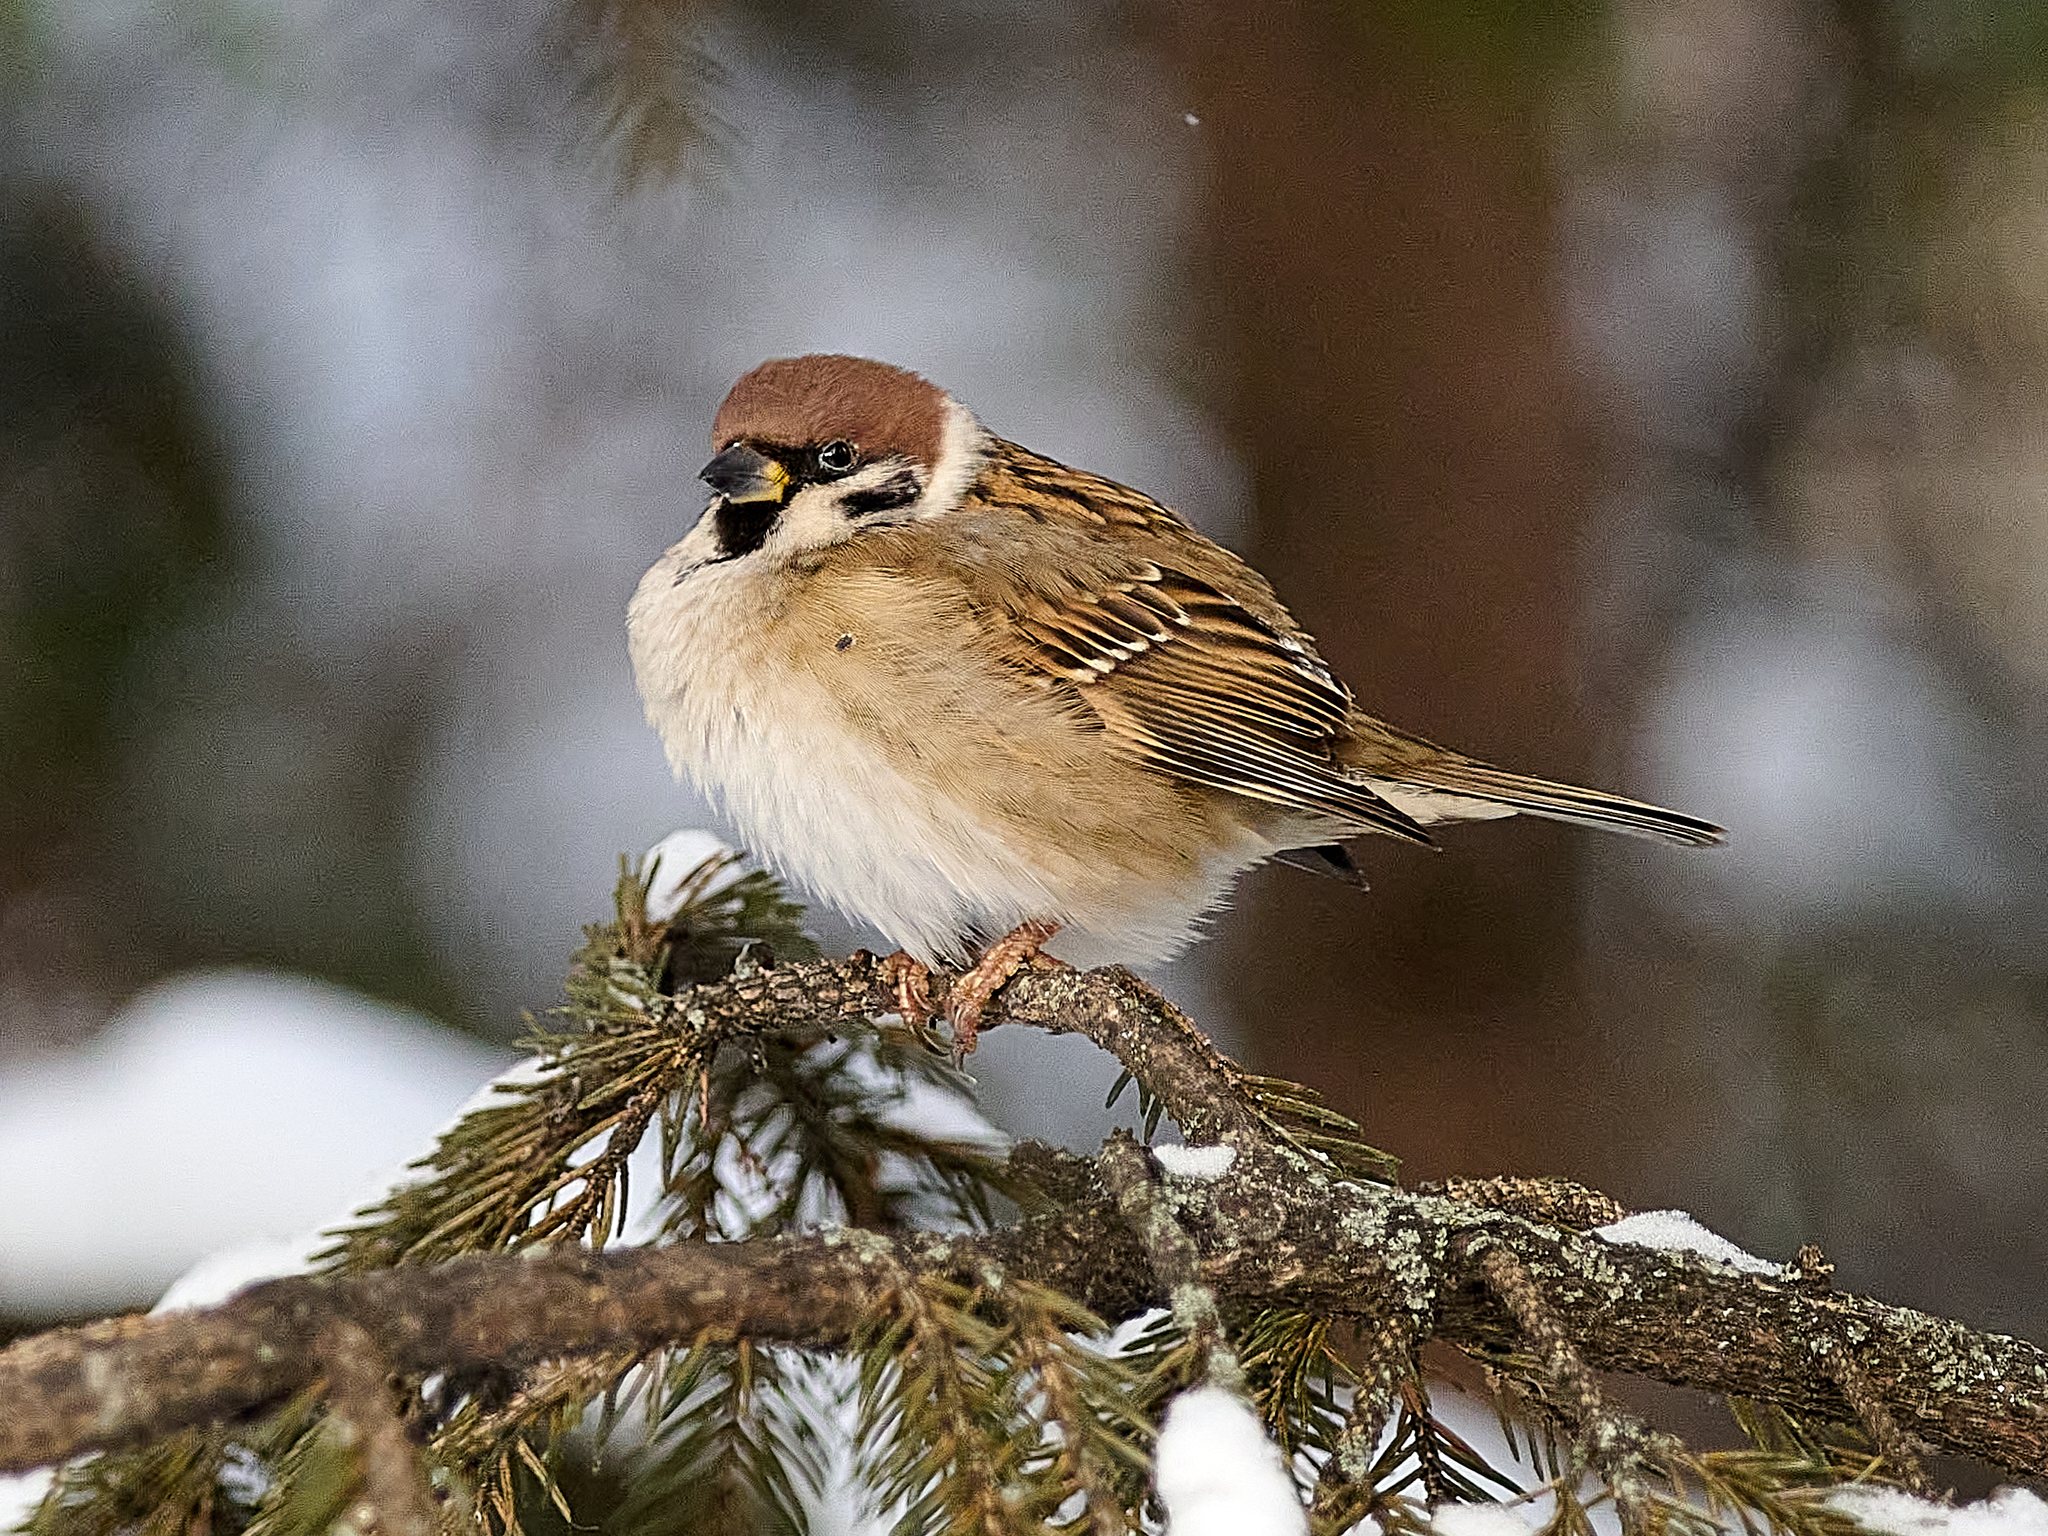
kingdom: Animalia
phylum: Chordata
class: Aves
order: Passeriformes
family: Passeridae
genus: Passer
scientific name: Passer montanus
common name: Eurasian tree sparrow
